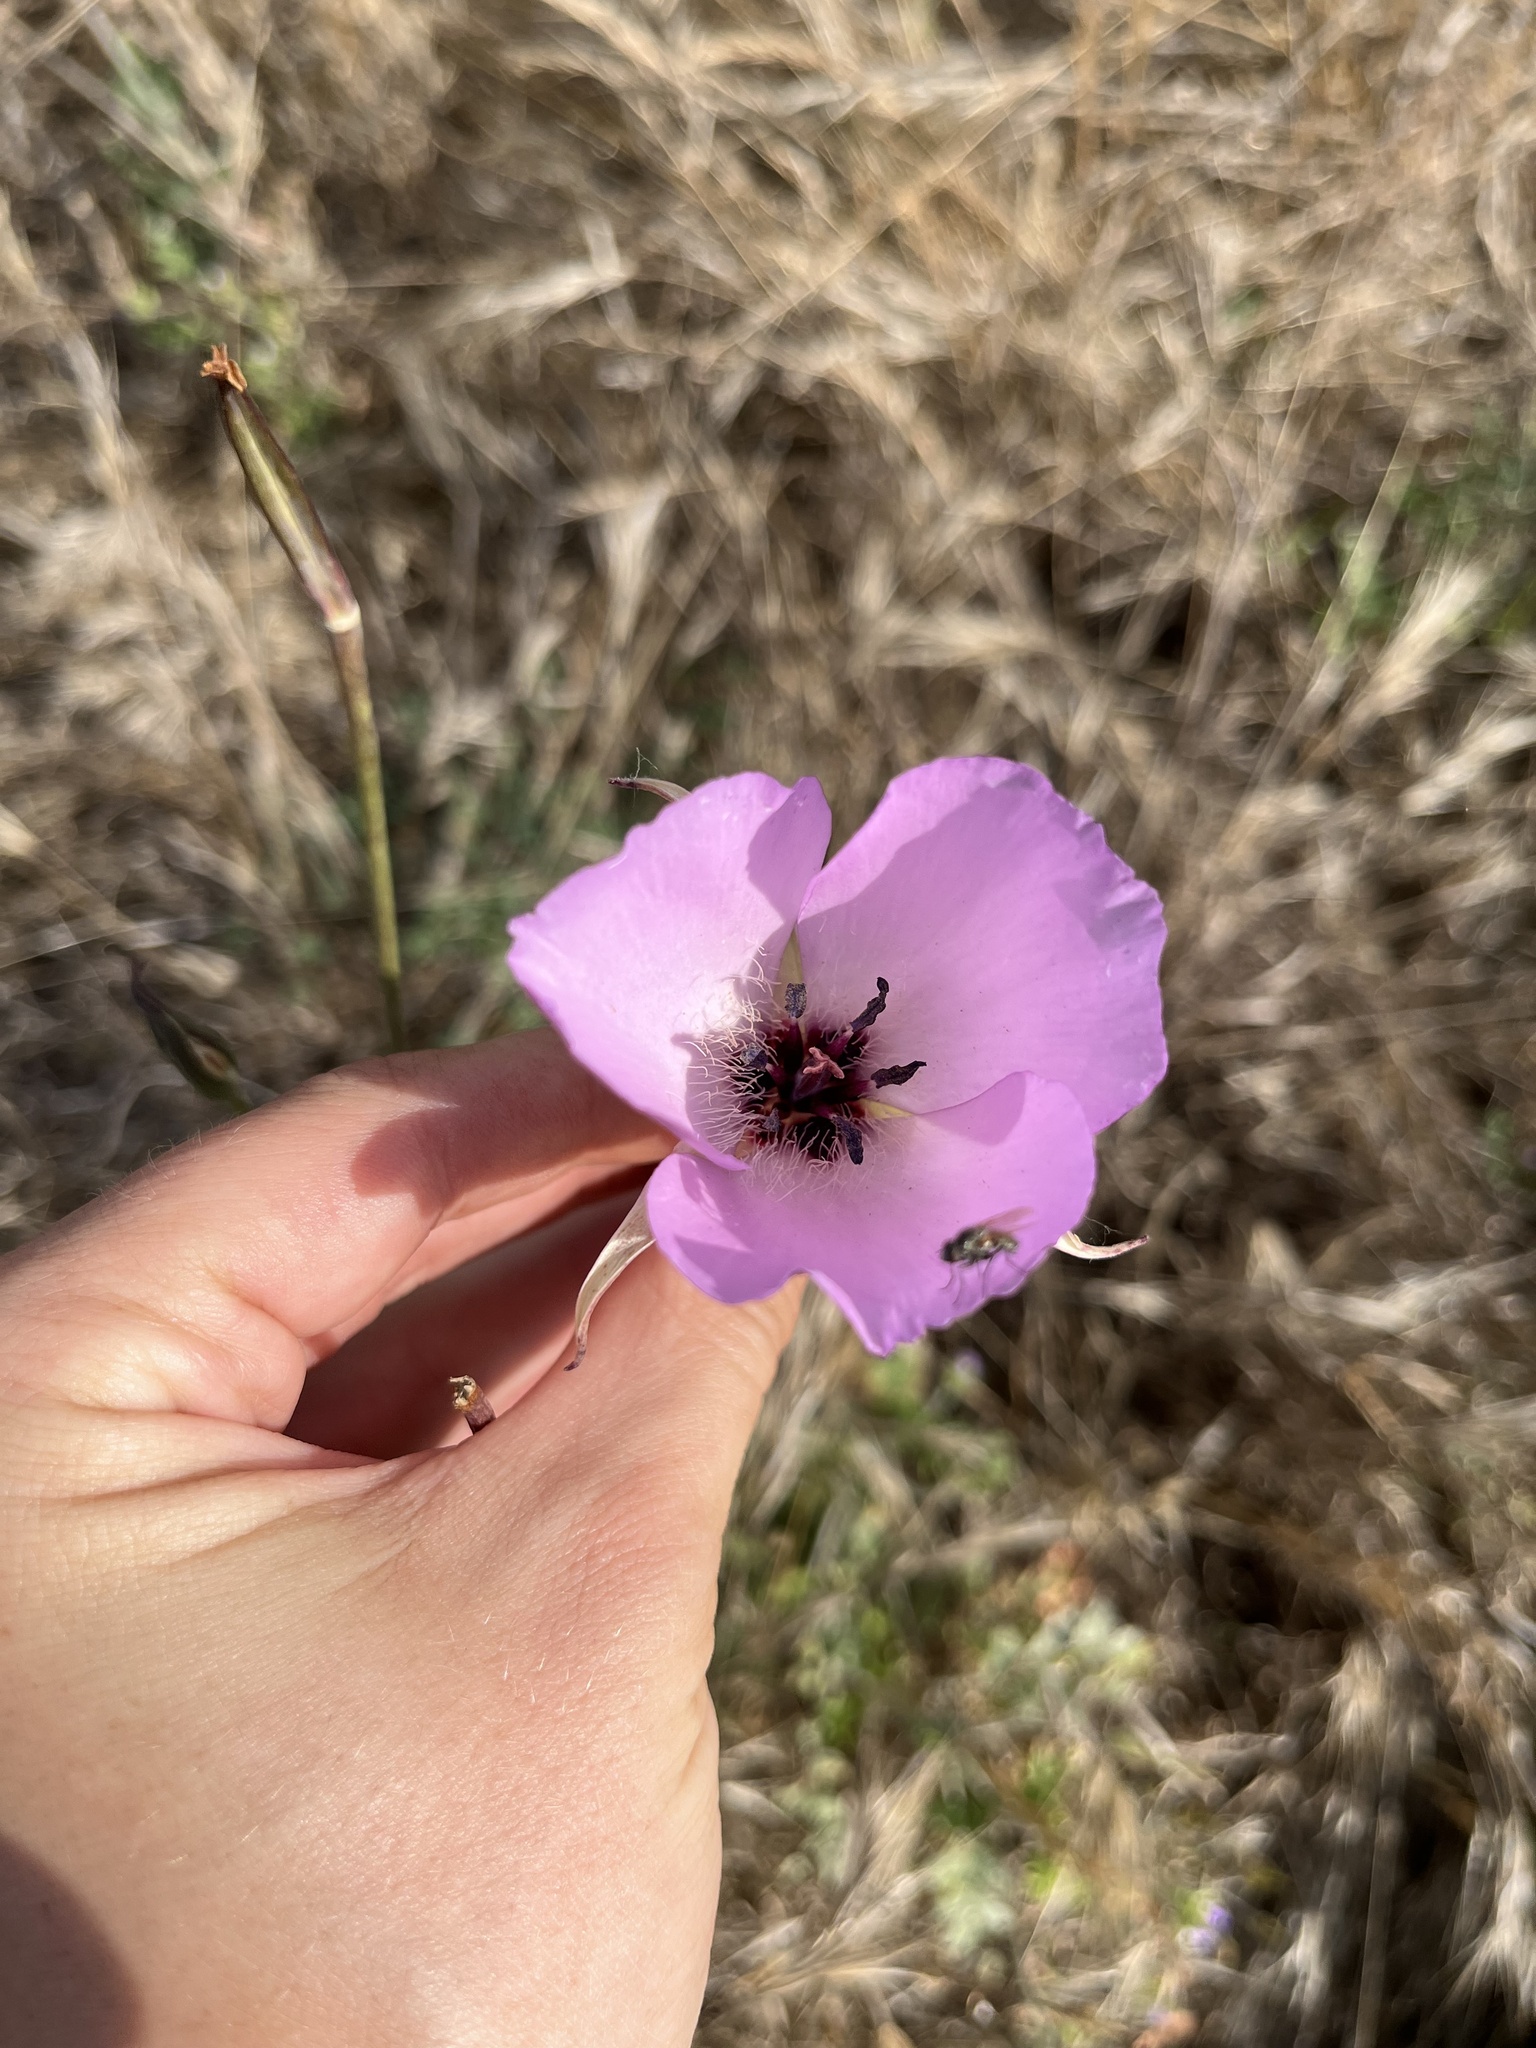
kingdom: Plantae
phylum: Tracheophyta
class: Liliopsida
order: Liliales
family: Liliaceae
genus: Calochortus
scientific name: Calochortus splendens
